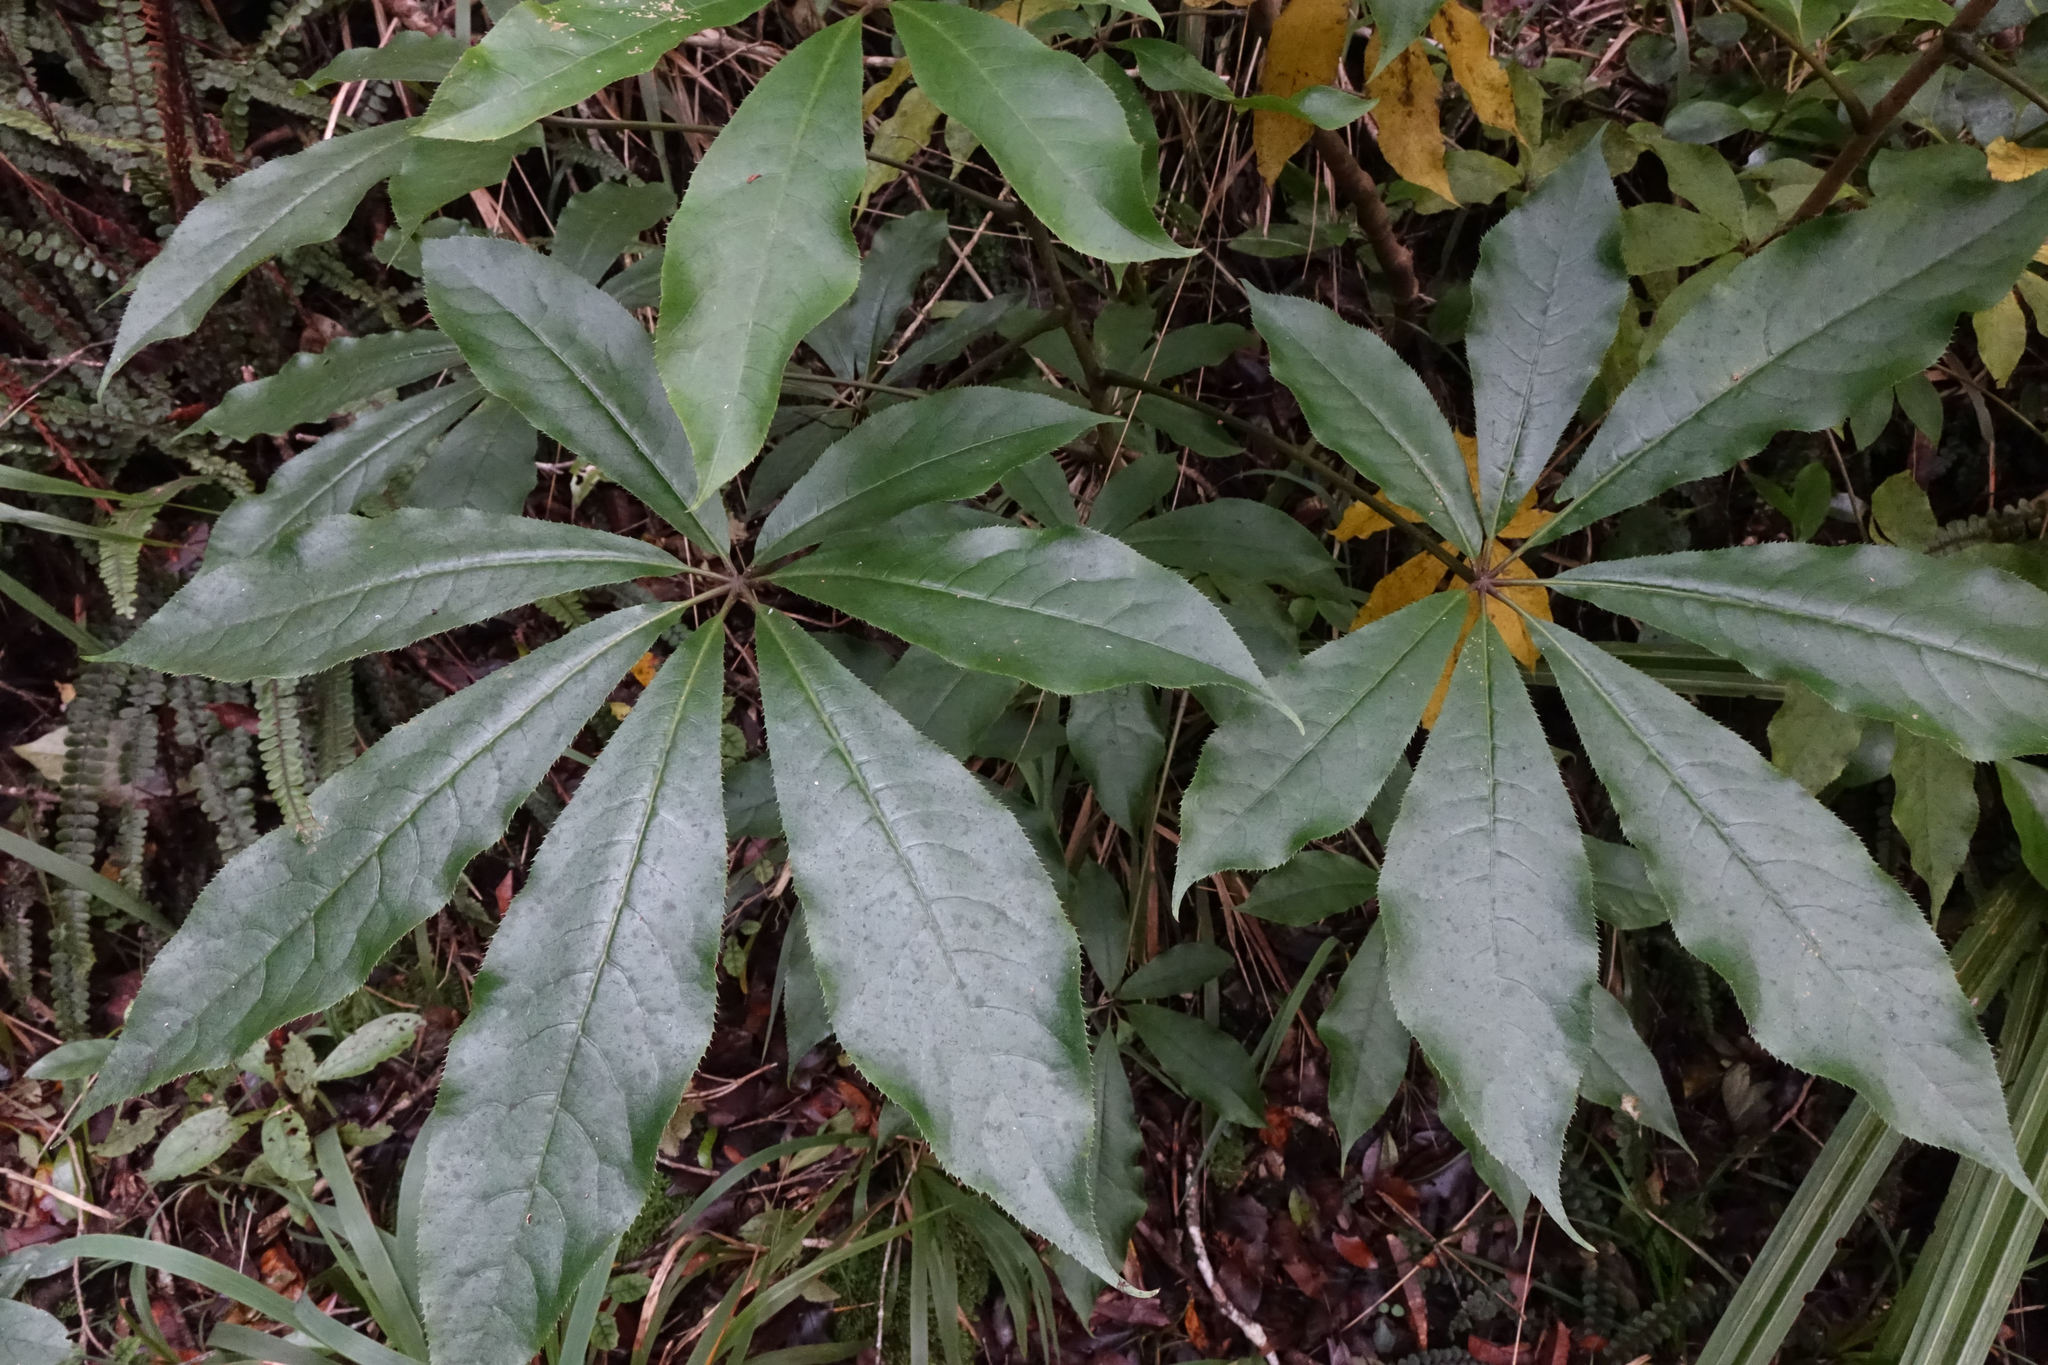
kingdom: Plantae
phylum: Tracheophyta
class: Magnoliopsida
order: Apiales
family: Araliaceae
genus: Schefflera
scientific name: Schefflera digitata
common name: Pate
